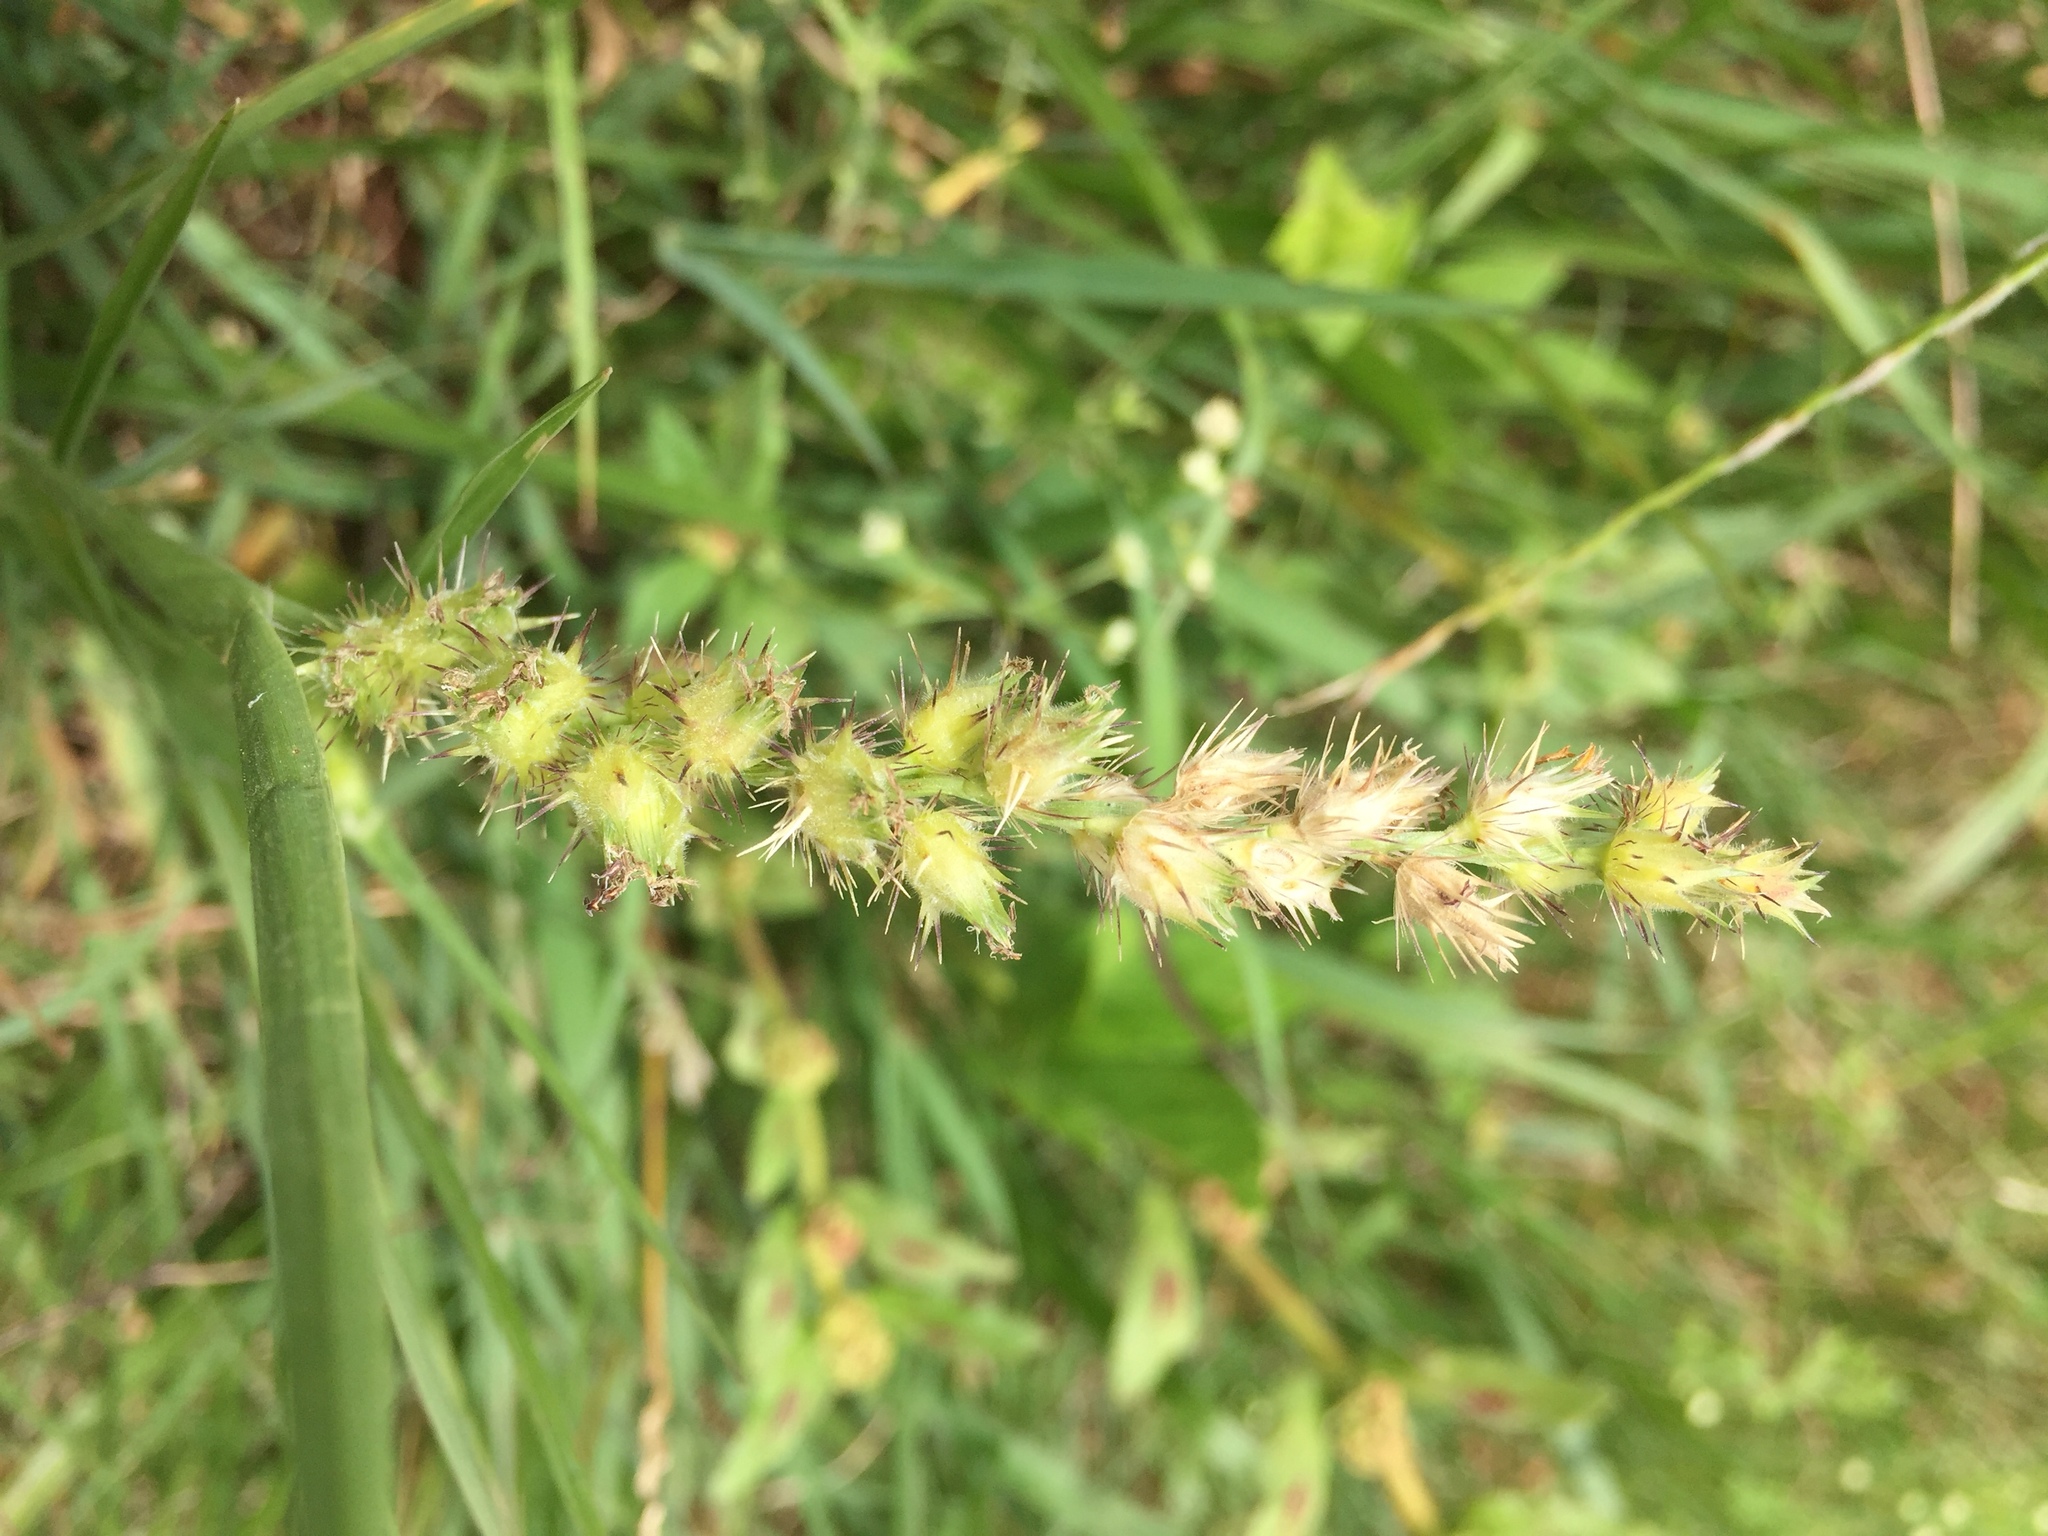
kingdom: Plantae
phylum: Tracheophyta
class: Liliopsida
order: Poales
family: Poaceae
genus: Cenchrus
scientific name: Cenchrus echinatus
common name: Southern sandbur
